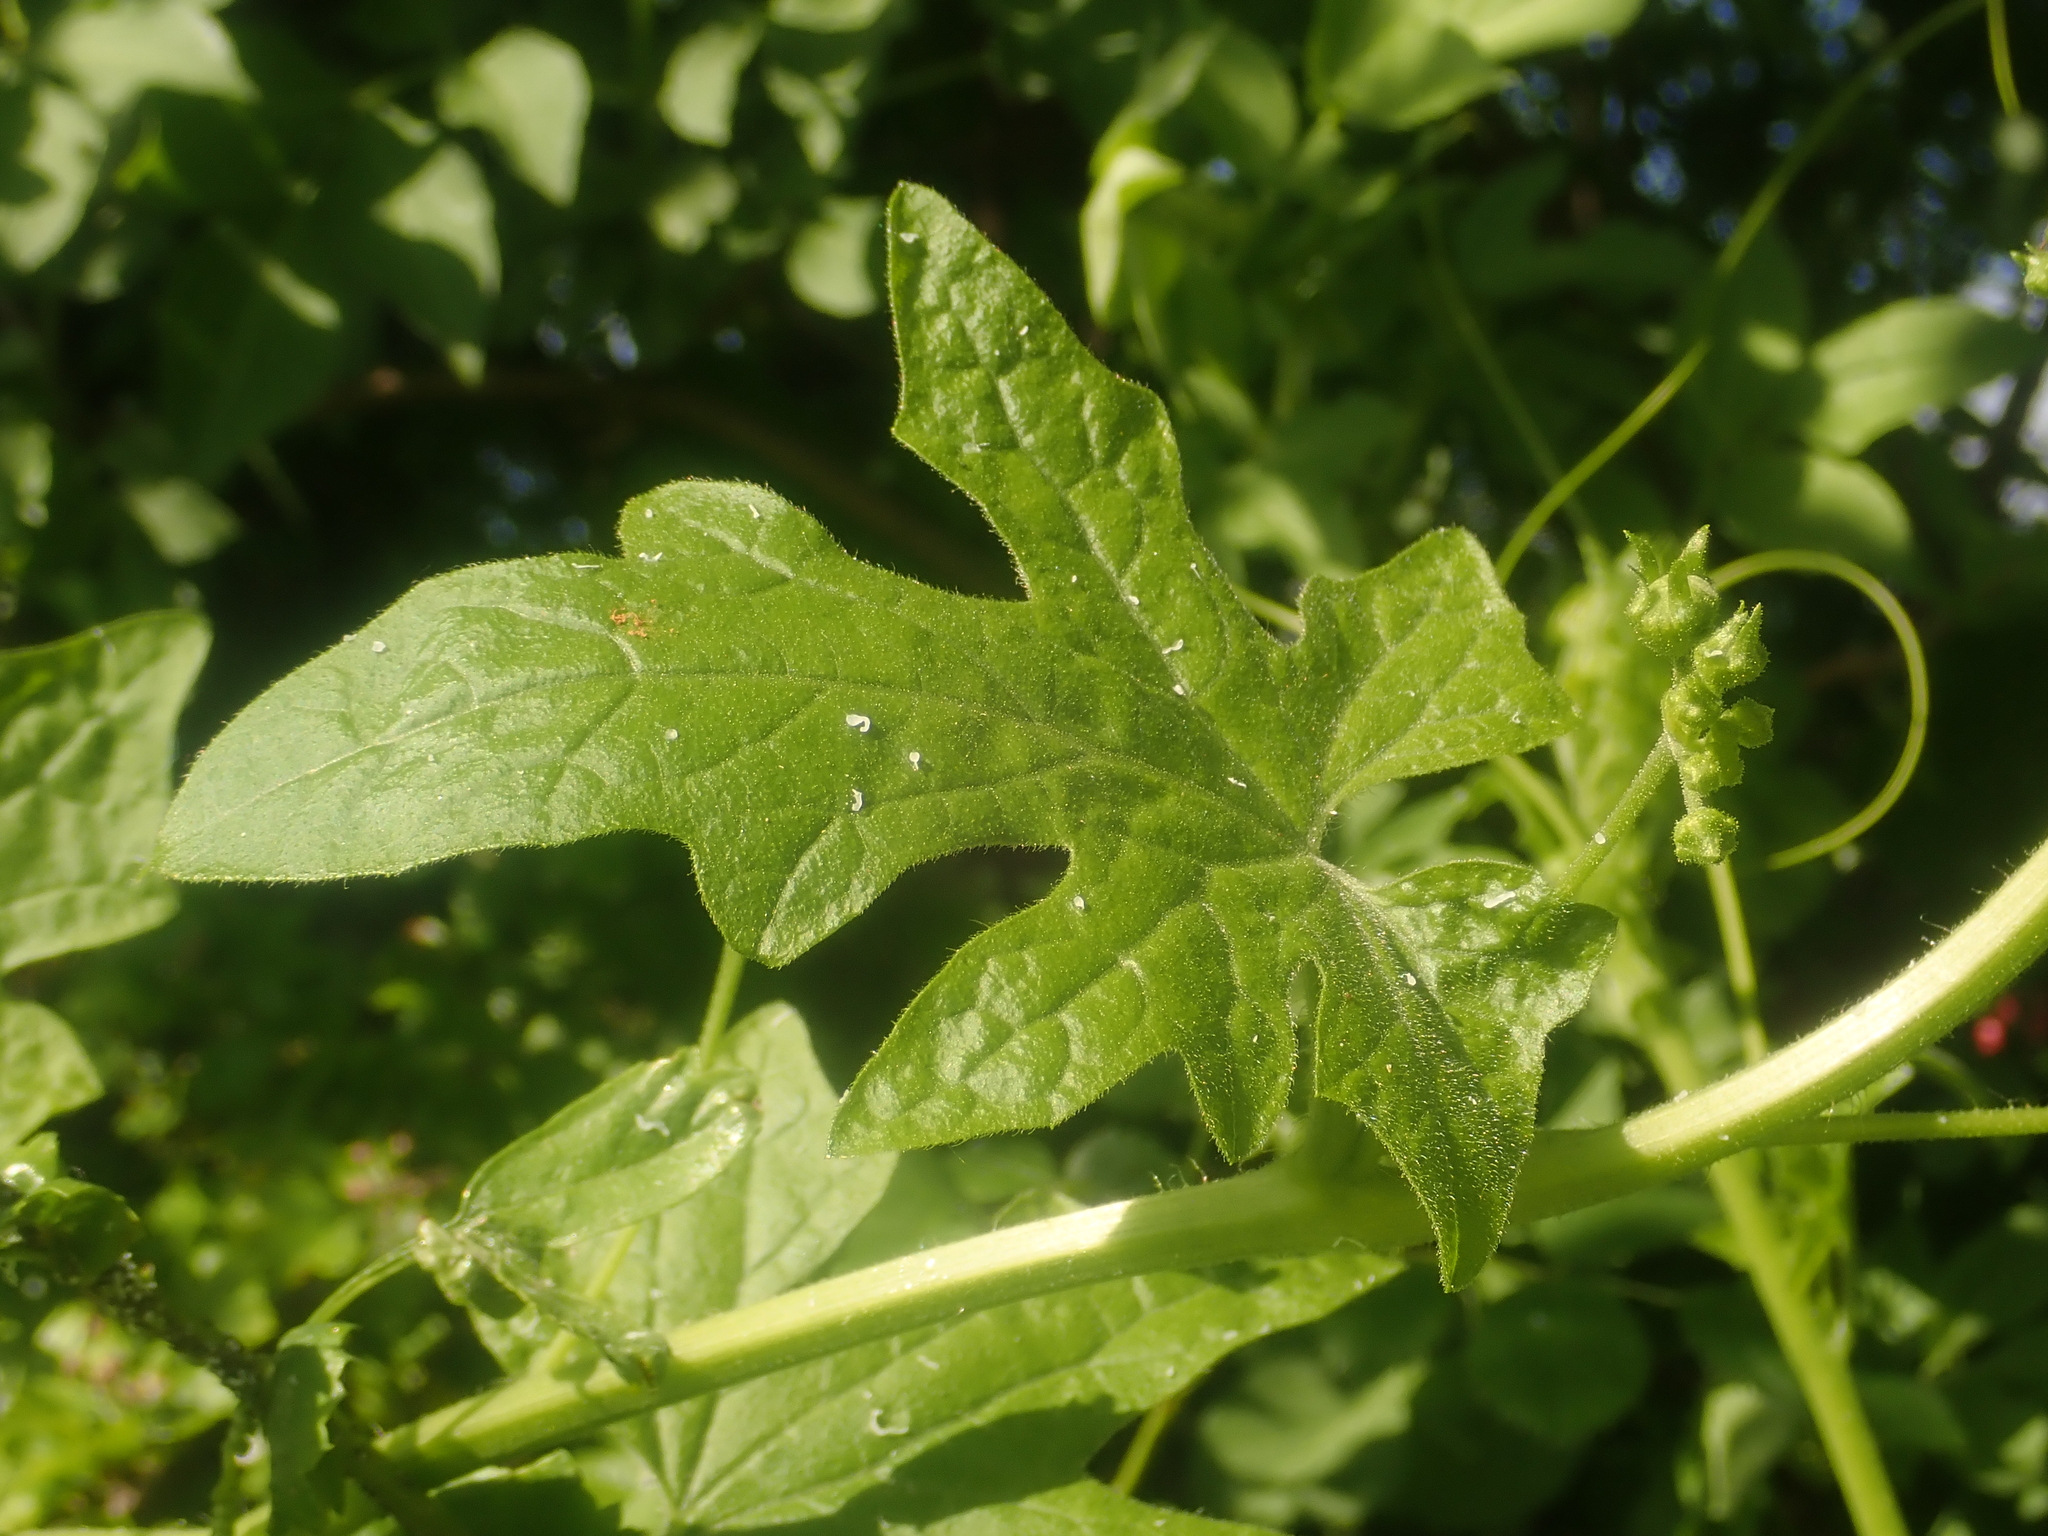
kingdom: Plantae
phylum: Tracheophyta
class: Magnoliopsida
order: Cucurbitales
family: Cucurbitaceae
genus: Bryonia
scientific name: Bryonia cretica
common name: Cretan bryony
